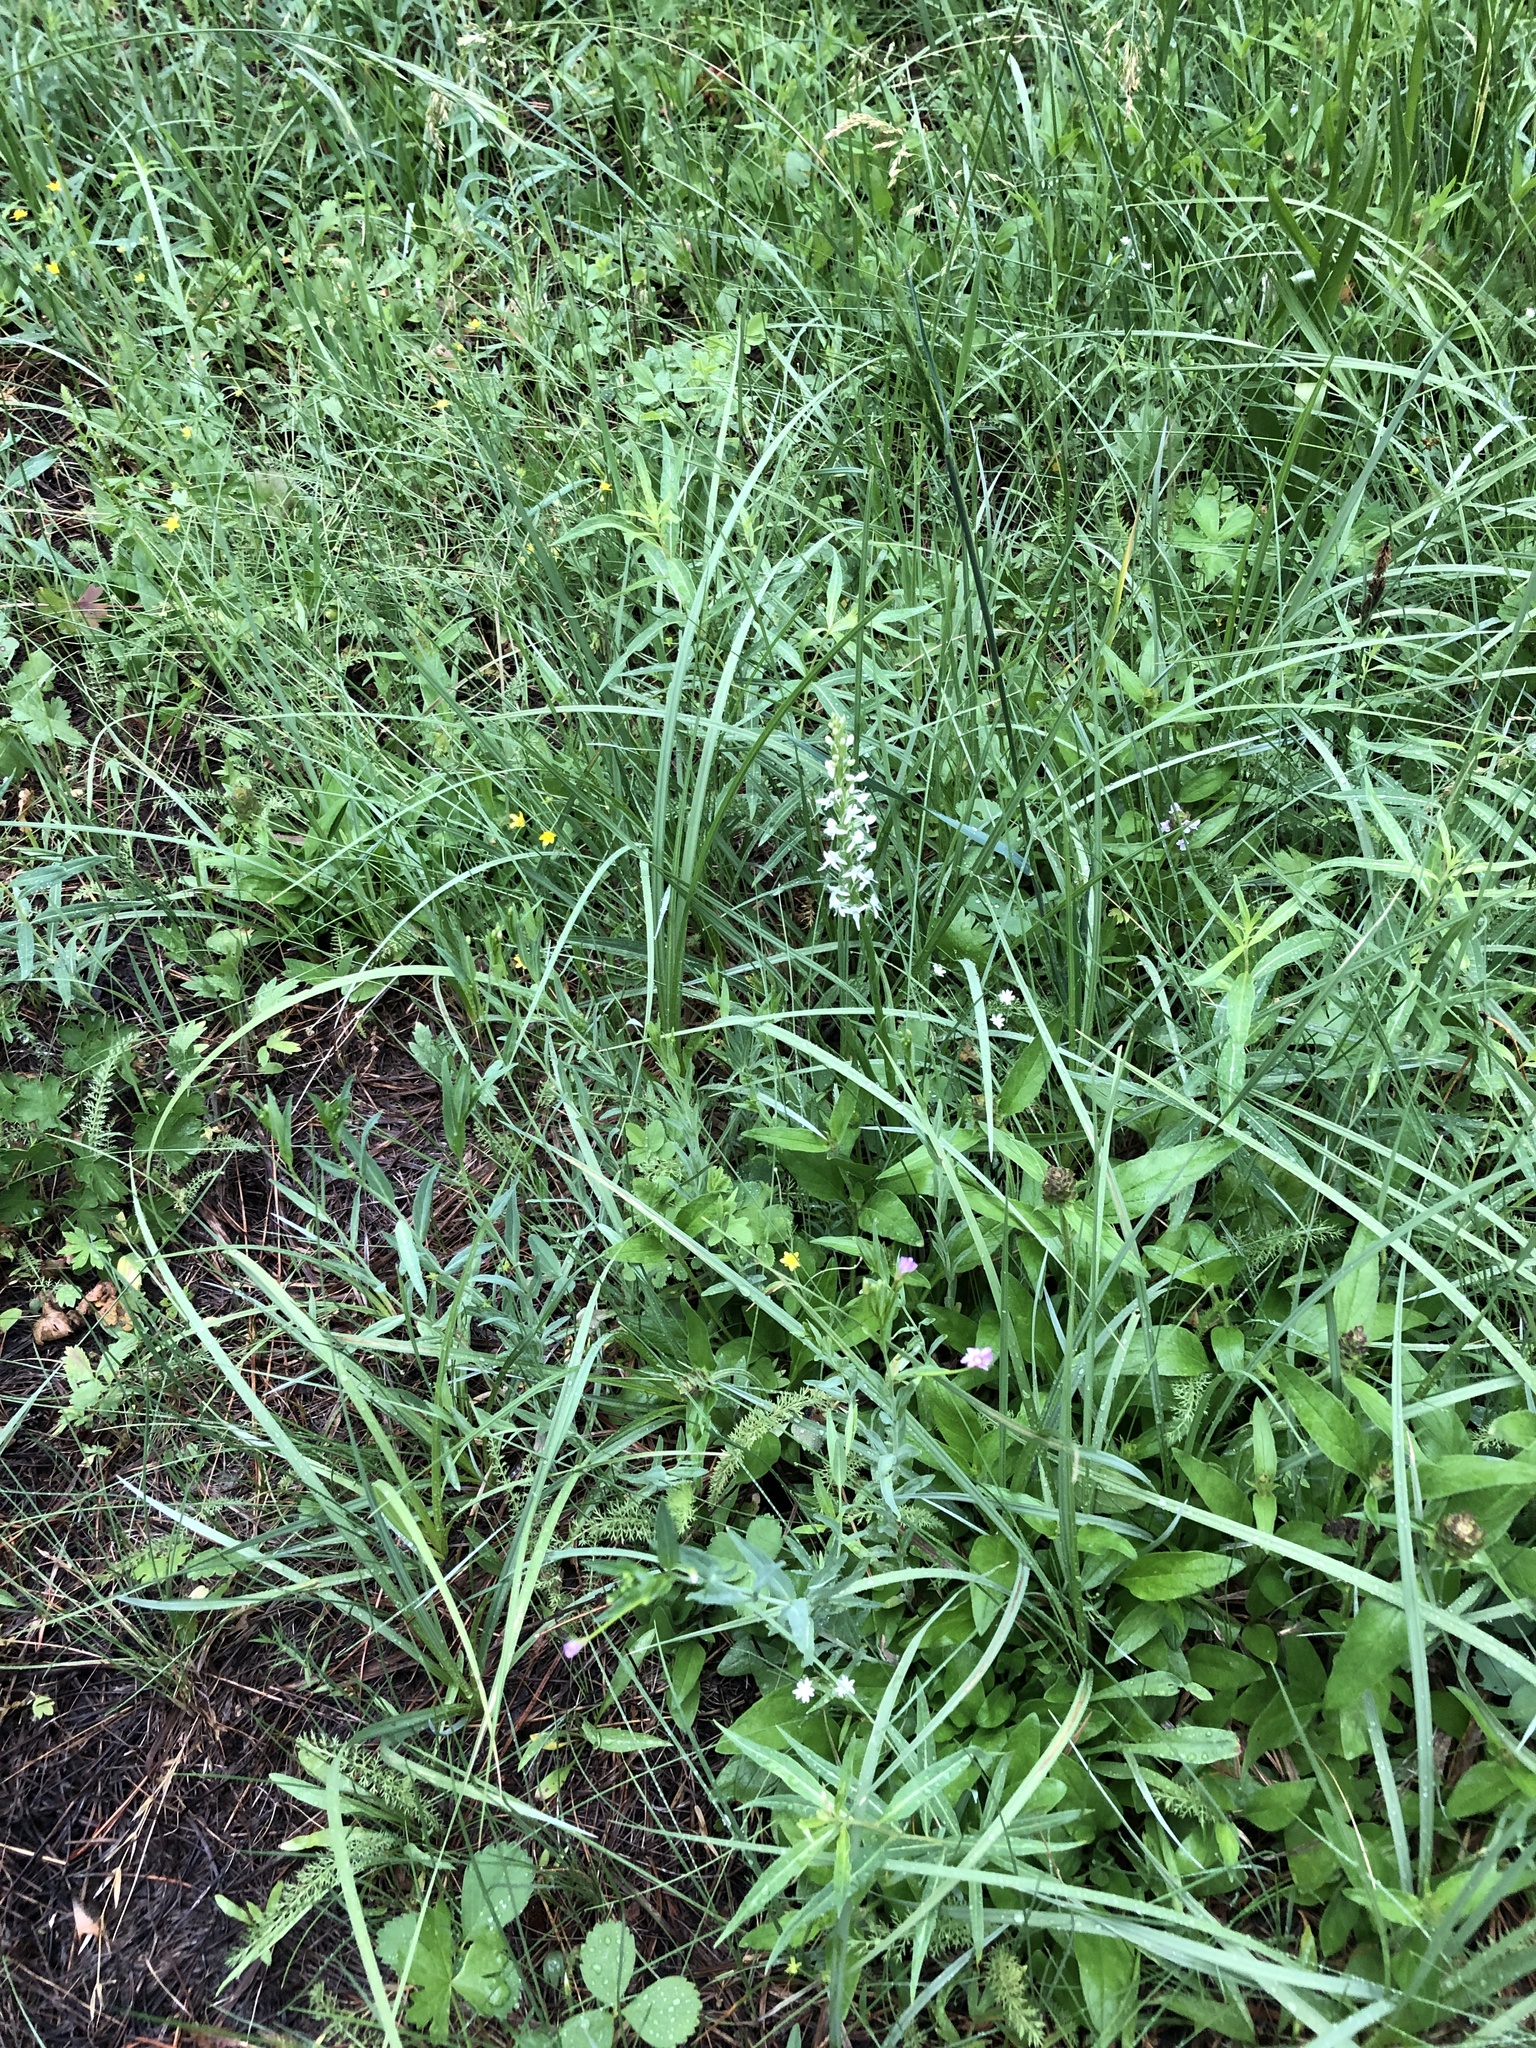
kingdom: Plantae
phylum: Tracheophyta
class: Liliopsida
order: Asparagales
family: Orchidaceae
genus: Platanthera
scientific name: Platanthera dilatata
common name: Bog candles
